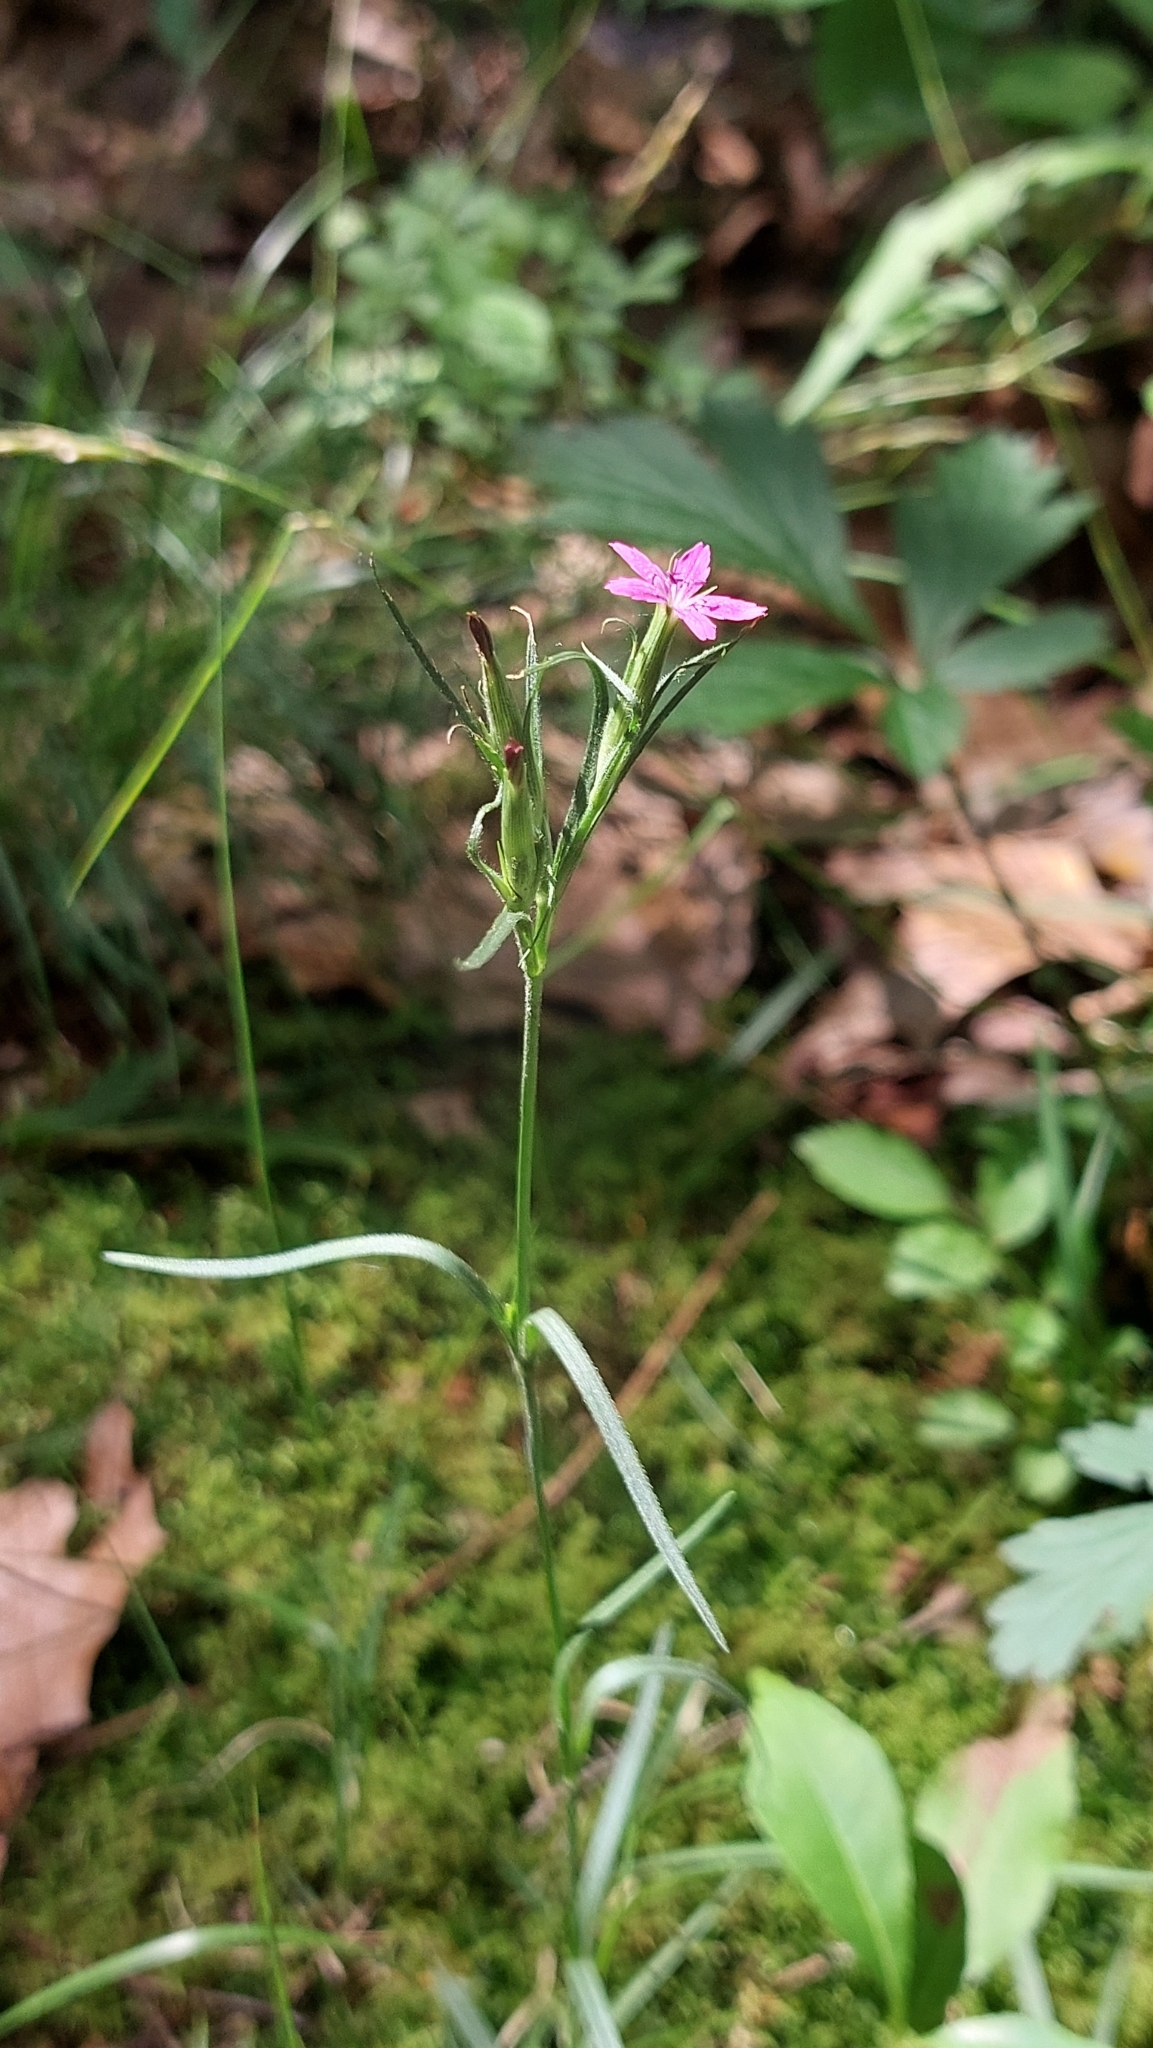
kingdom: Plantae
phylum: Tracheophyta
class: Magnoliopsida
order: Caryophyllales
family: Caryophyllaceae
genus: Dianthus
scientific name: Dianthus armeria
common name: Deptford pink
